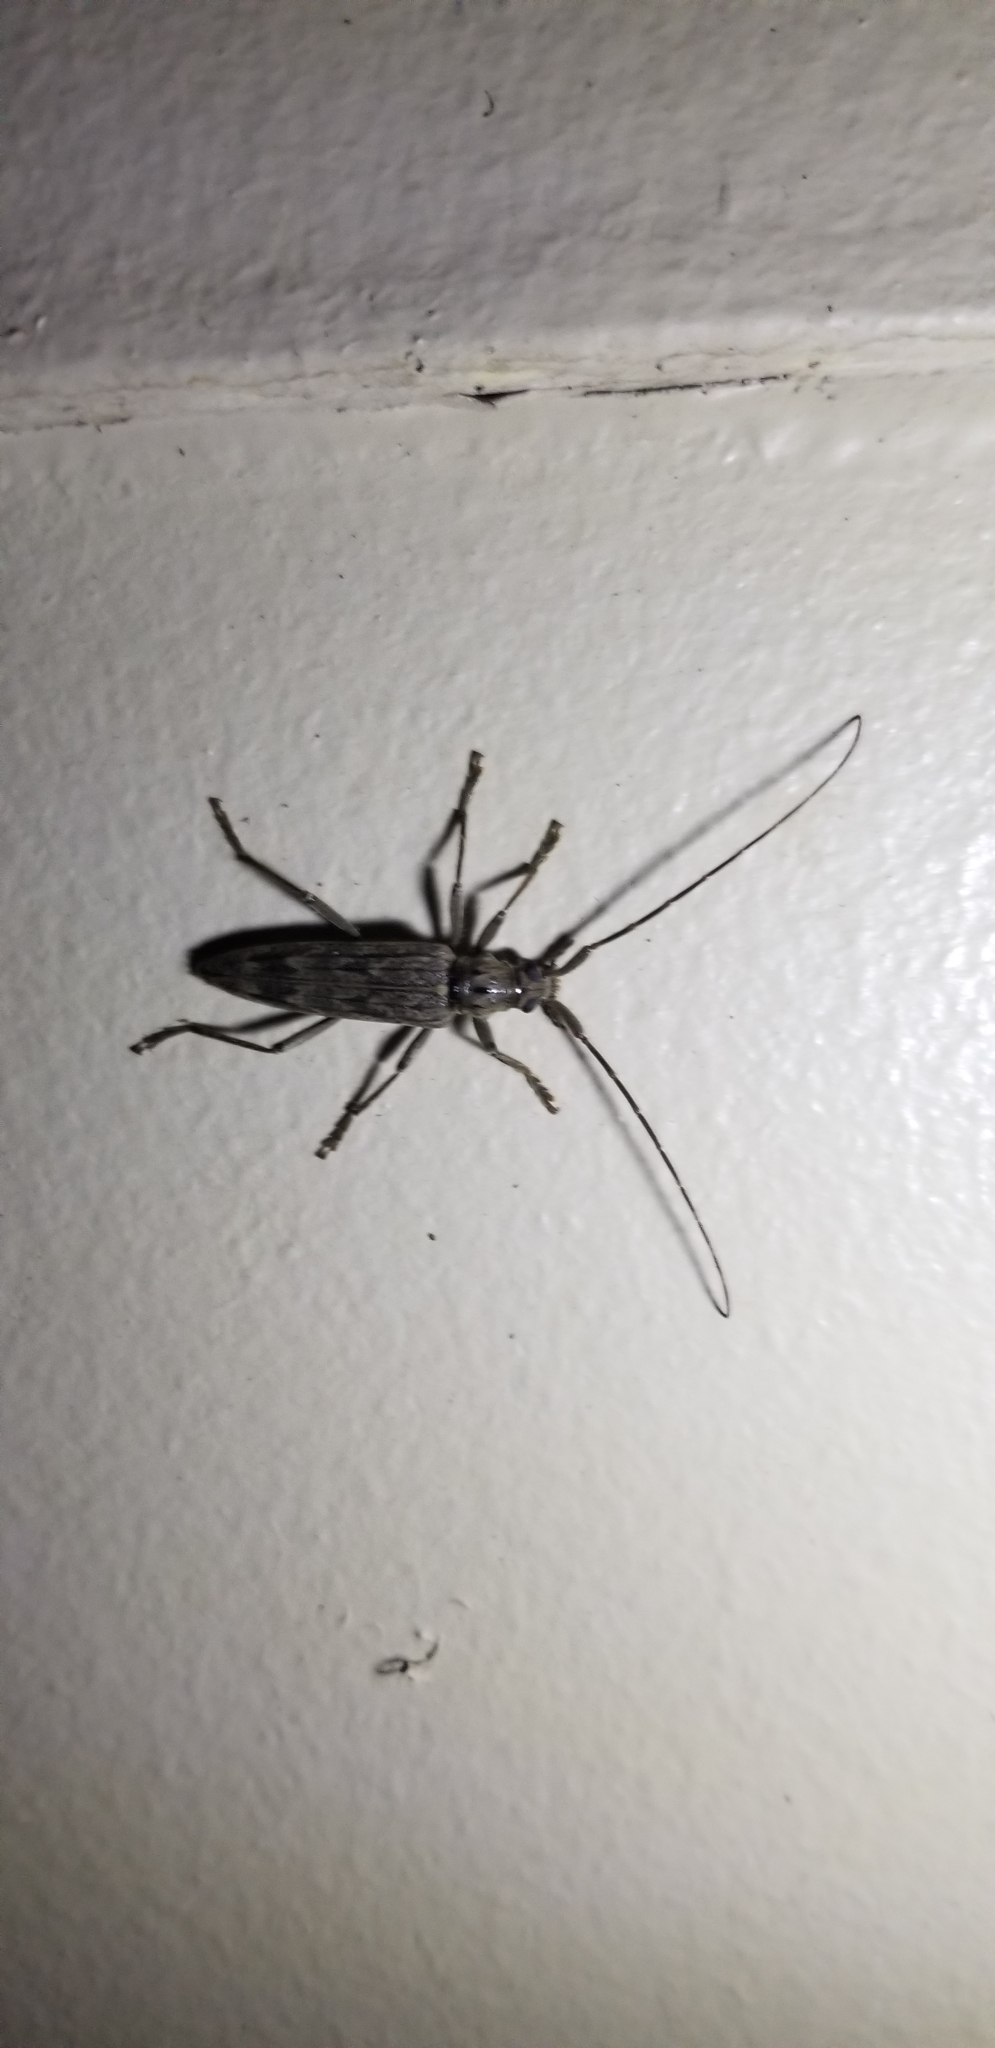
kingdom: Animalia
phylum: Arthropoda
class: Insecta
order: Coleoptera
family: Cerambycidae
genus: Elytrimitatrix
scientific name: Elytrimitatrix undata
